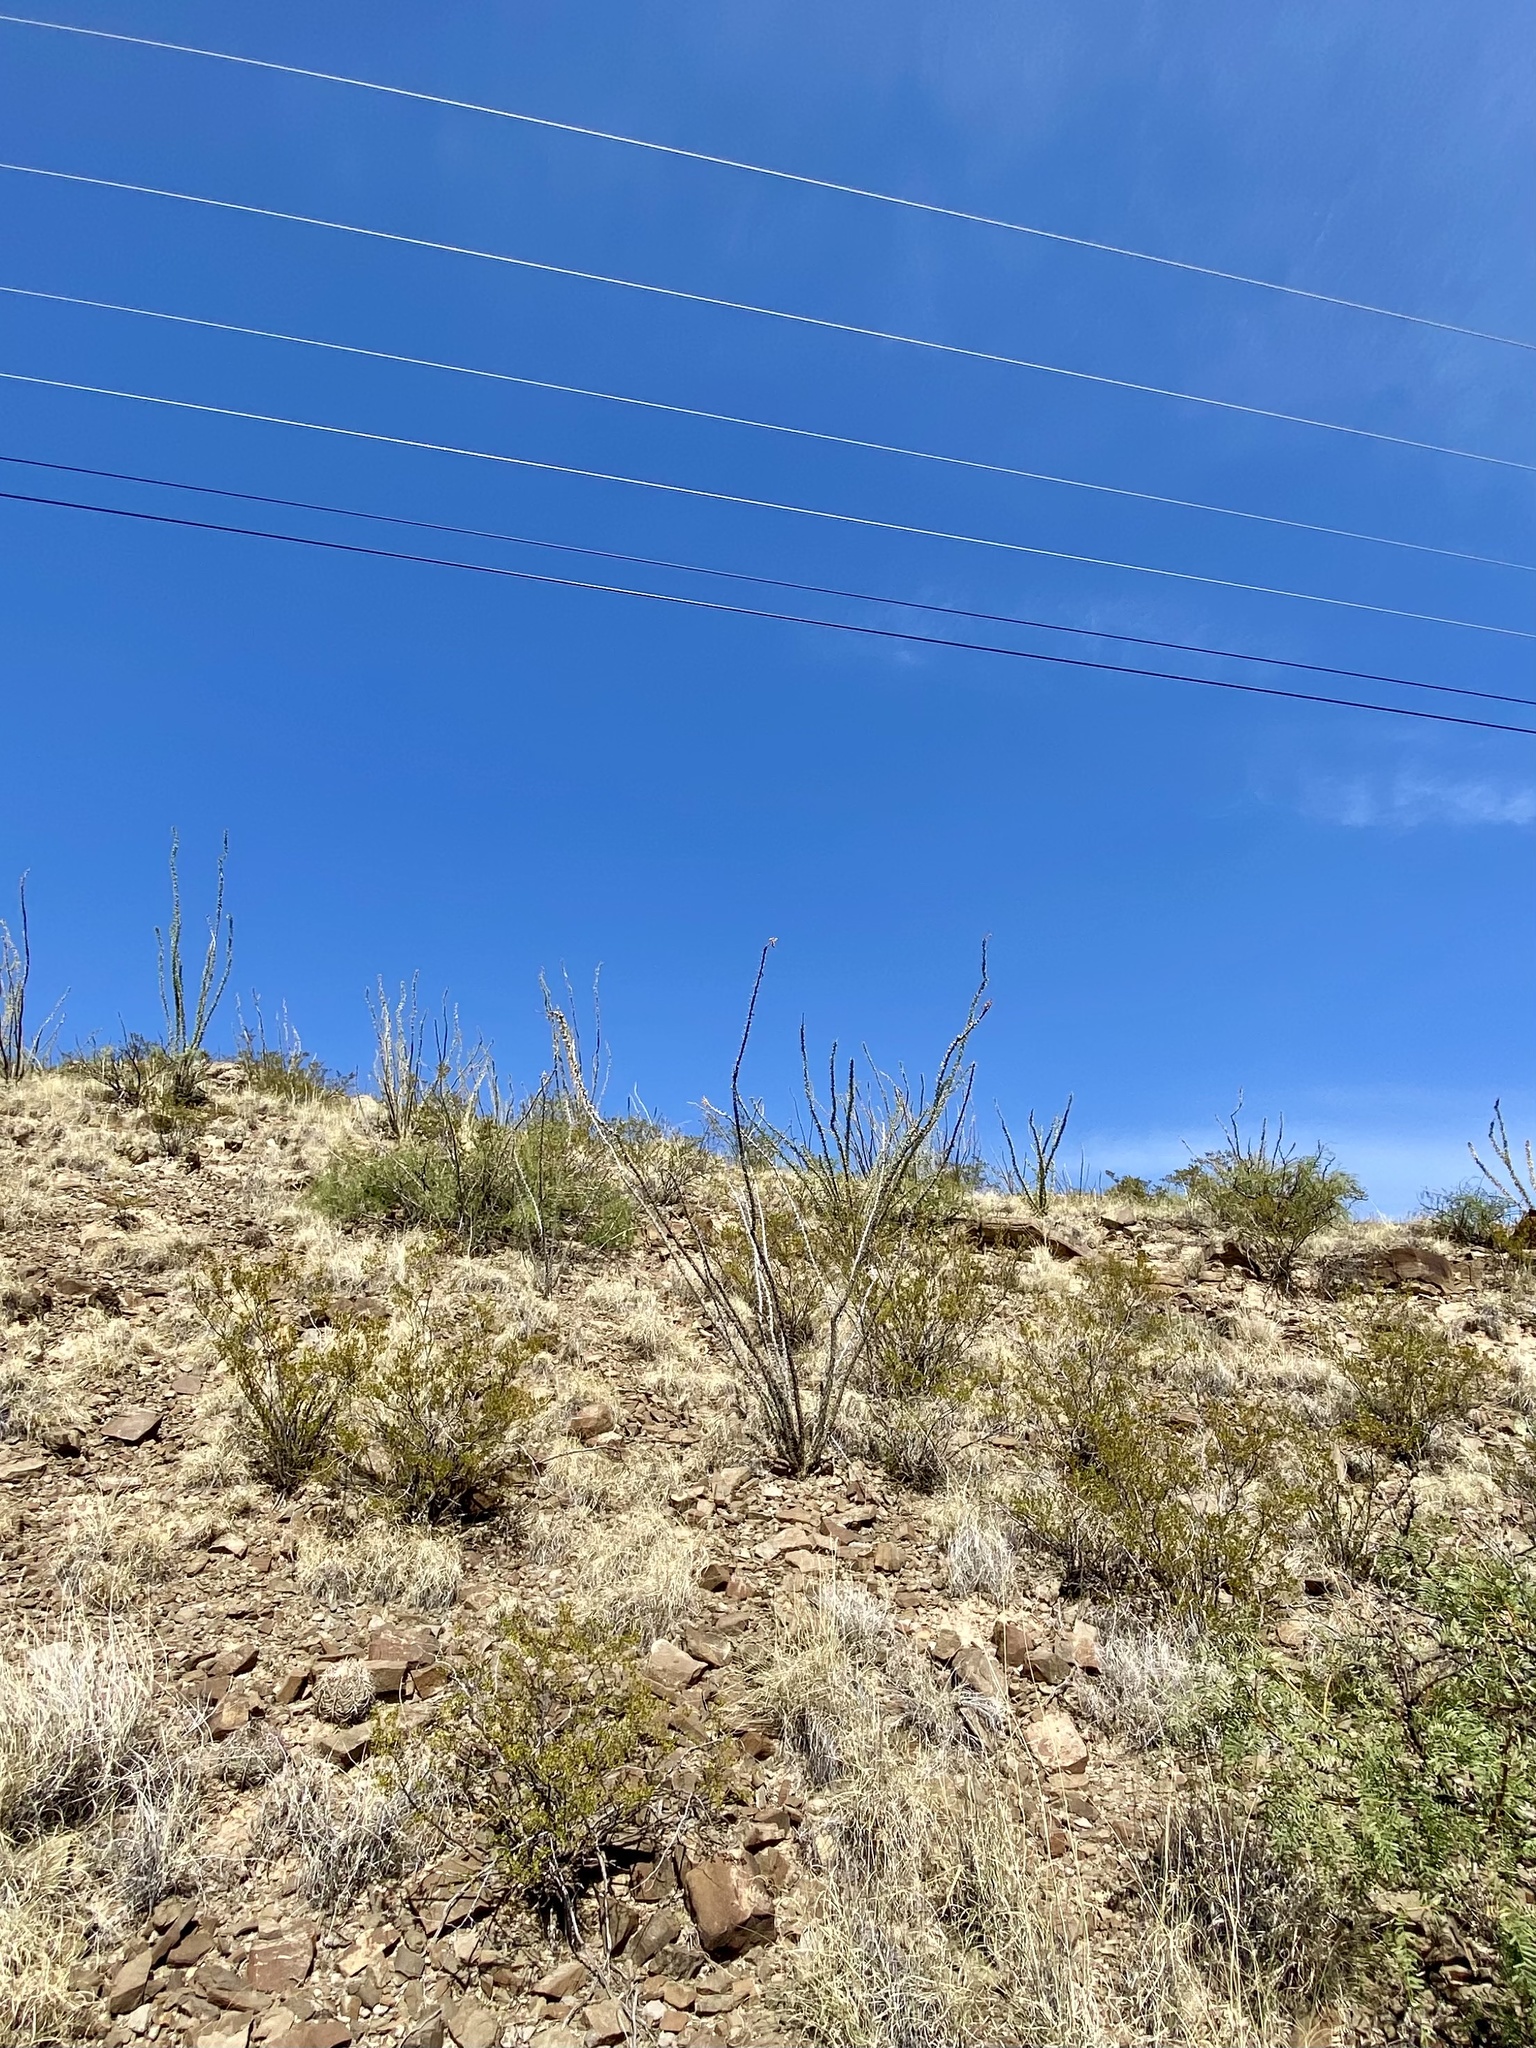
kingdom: Plantae
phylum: Tracheophyta
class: Magnoliopsida
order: Ericales
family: Fouquieriaceae
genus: Fouquieria
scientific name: Fouquieria splendens
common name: Vine-cactus
